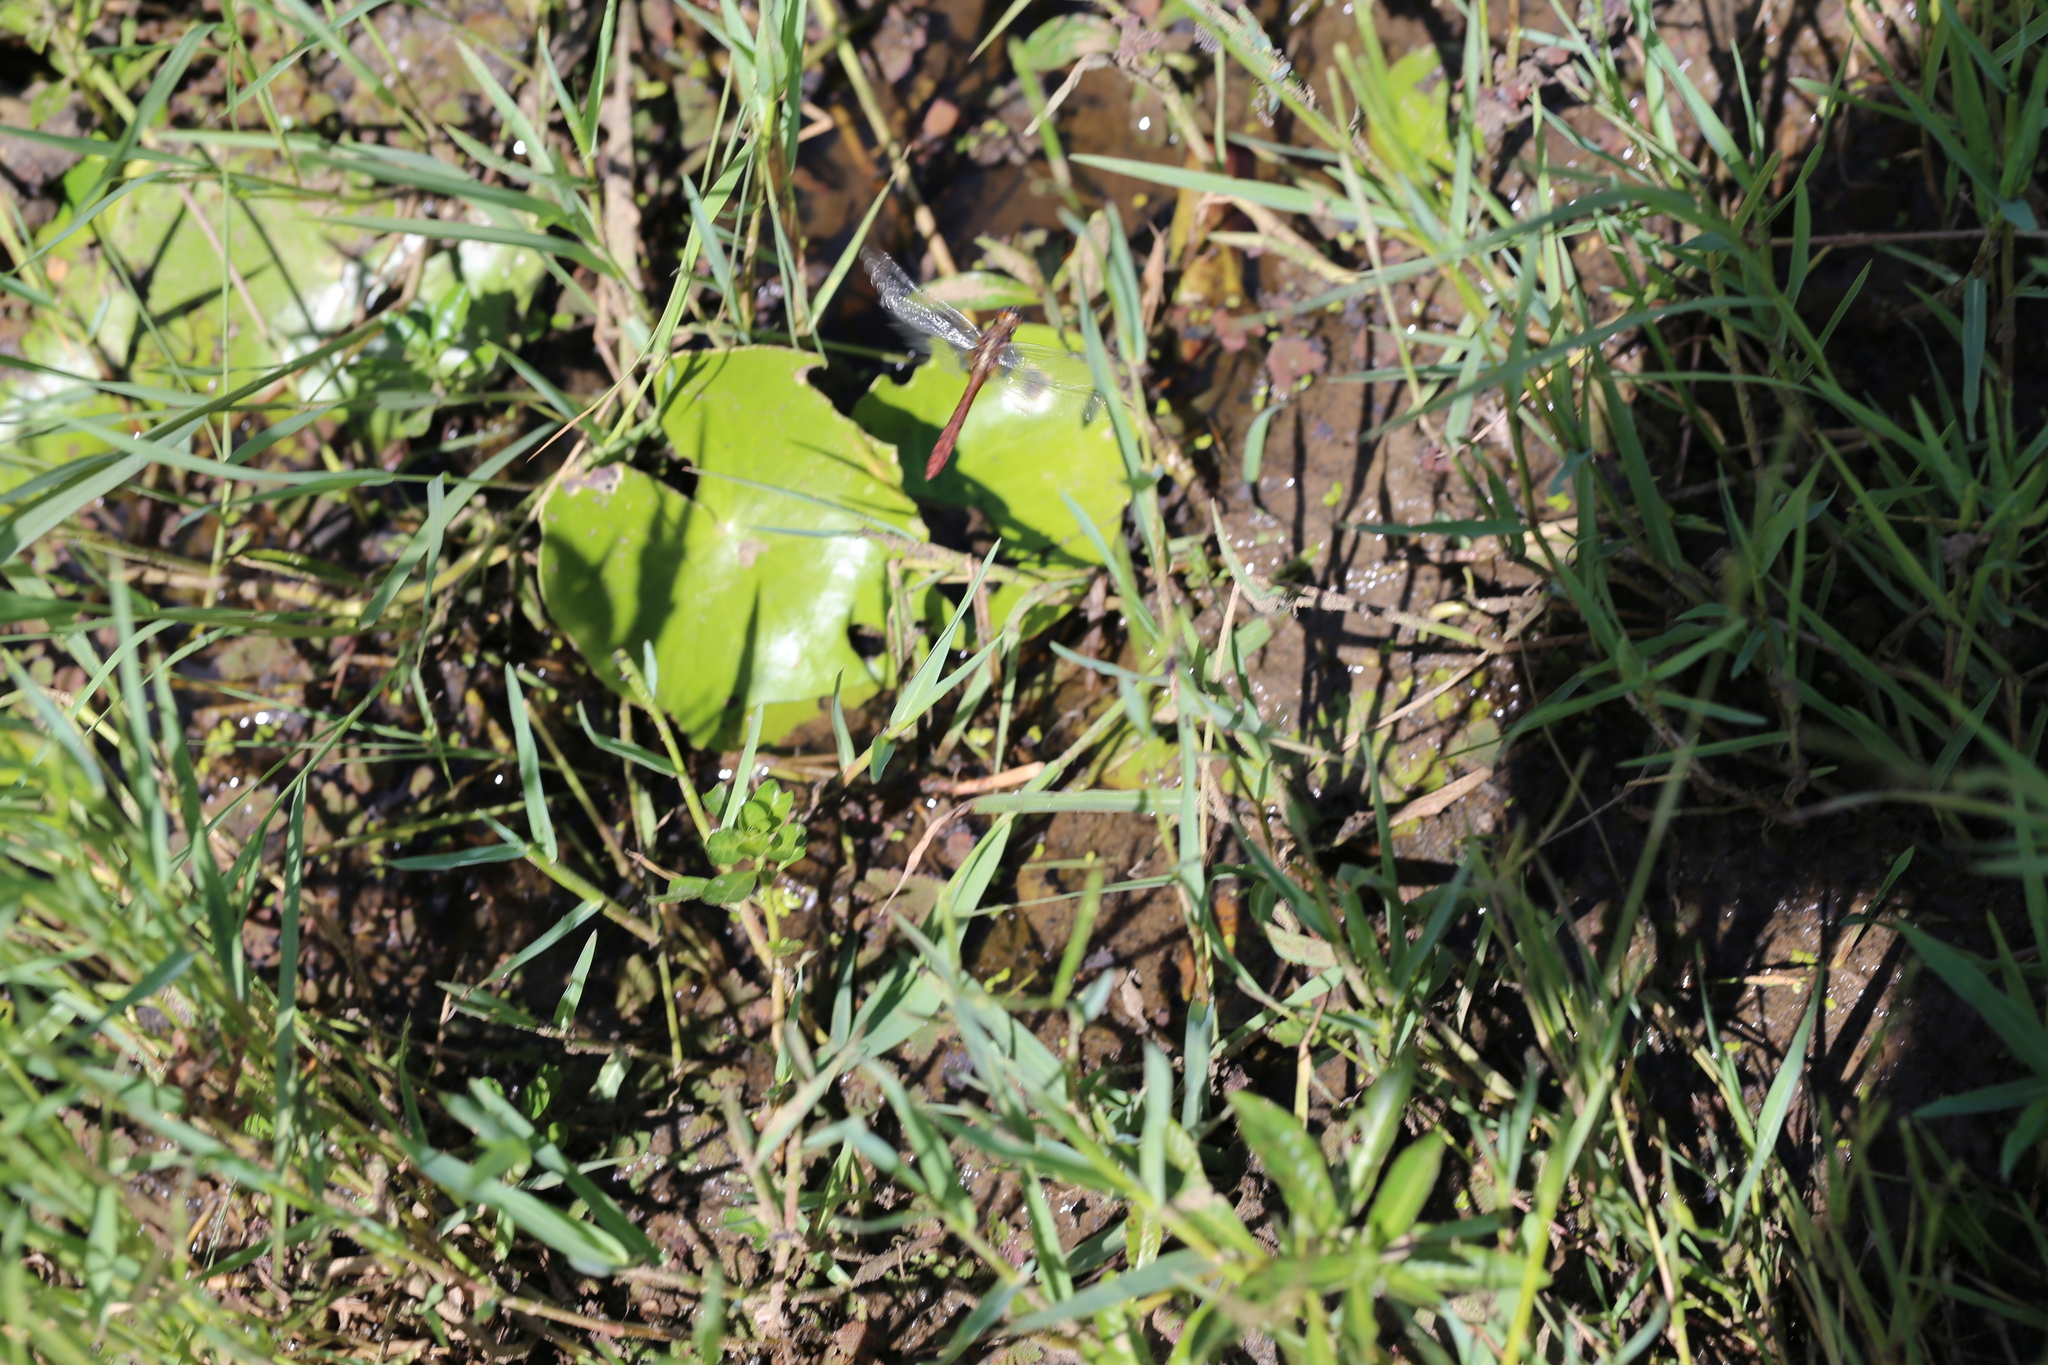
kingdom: Animalia
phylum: Arthropoda
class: Insecta
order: Odonata
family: Libellulidae
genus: Orthetrum
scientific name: Orthetrum villosovittatum
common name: Firery skimmer
